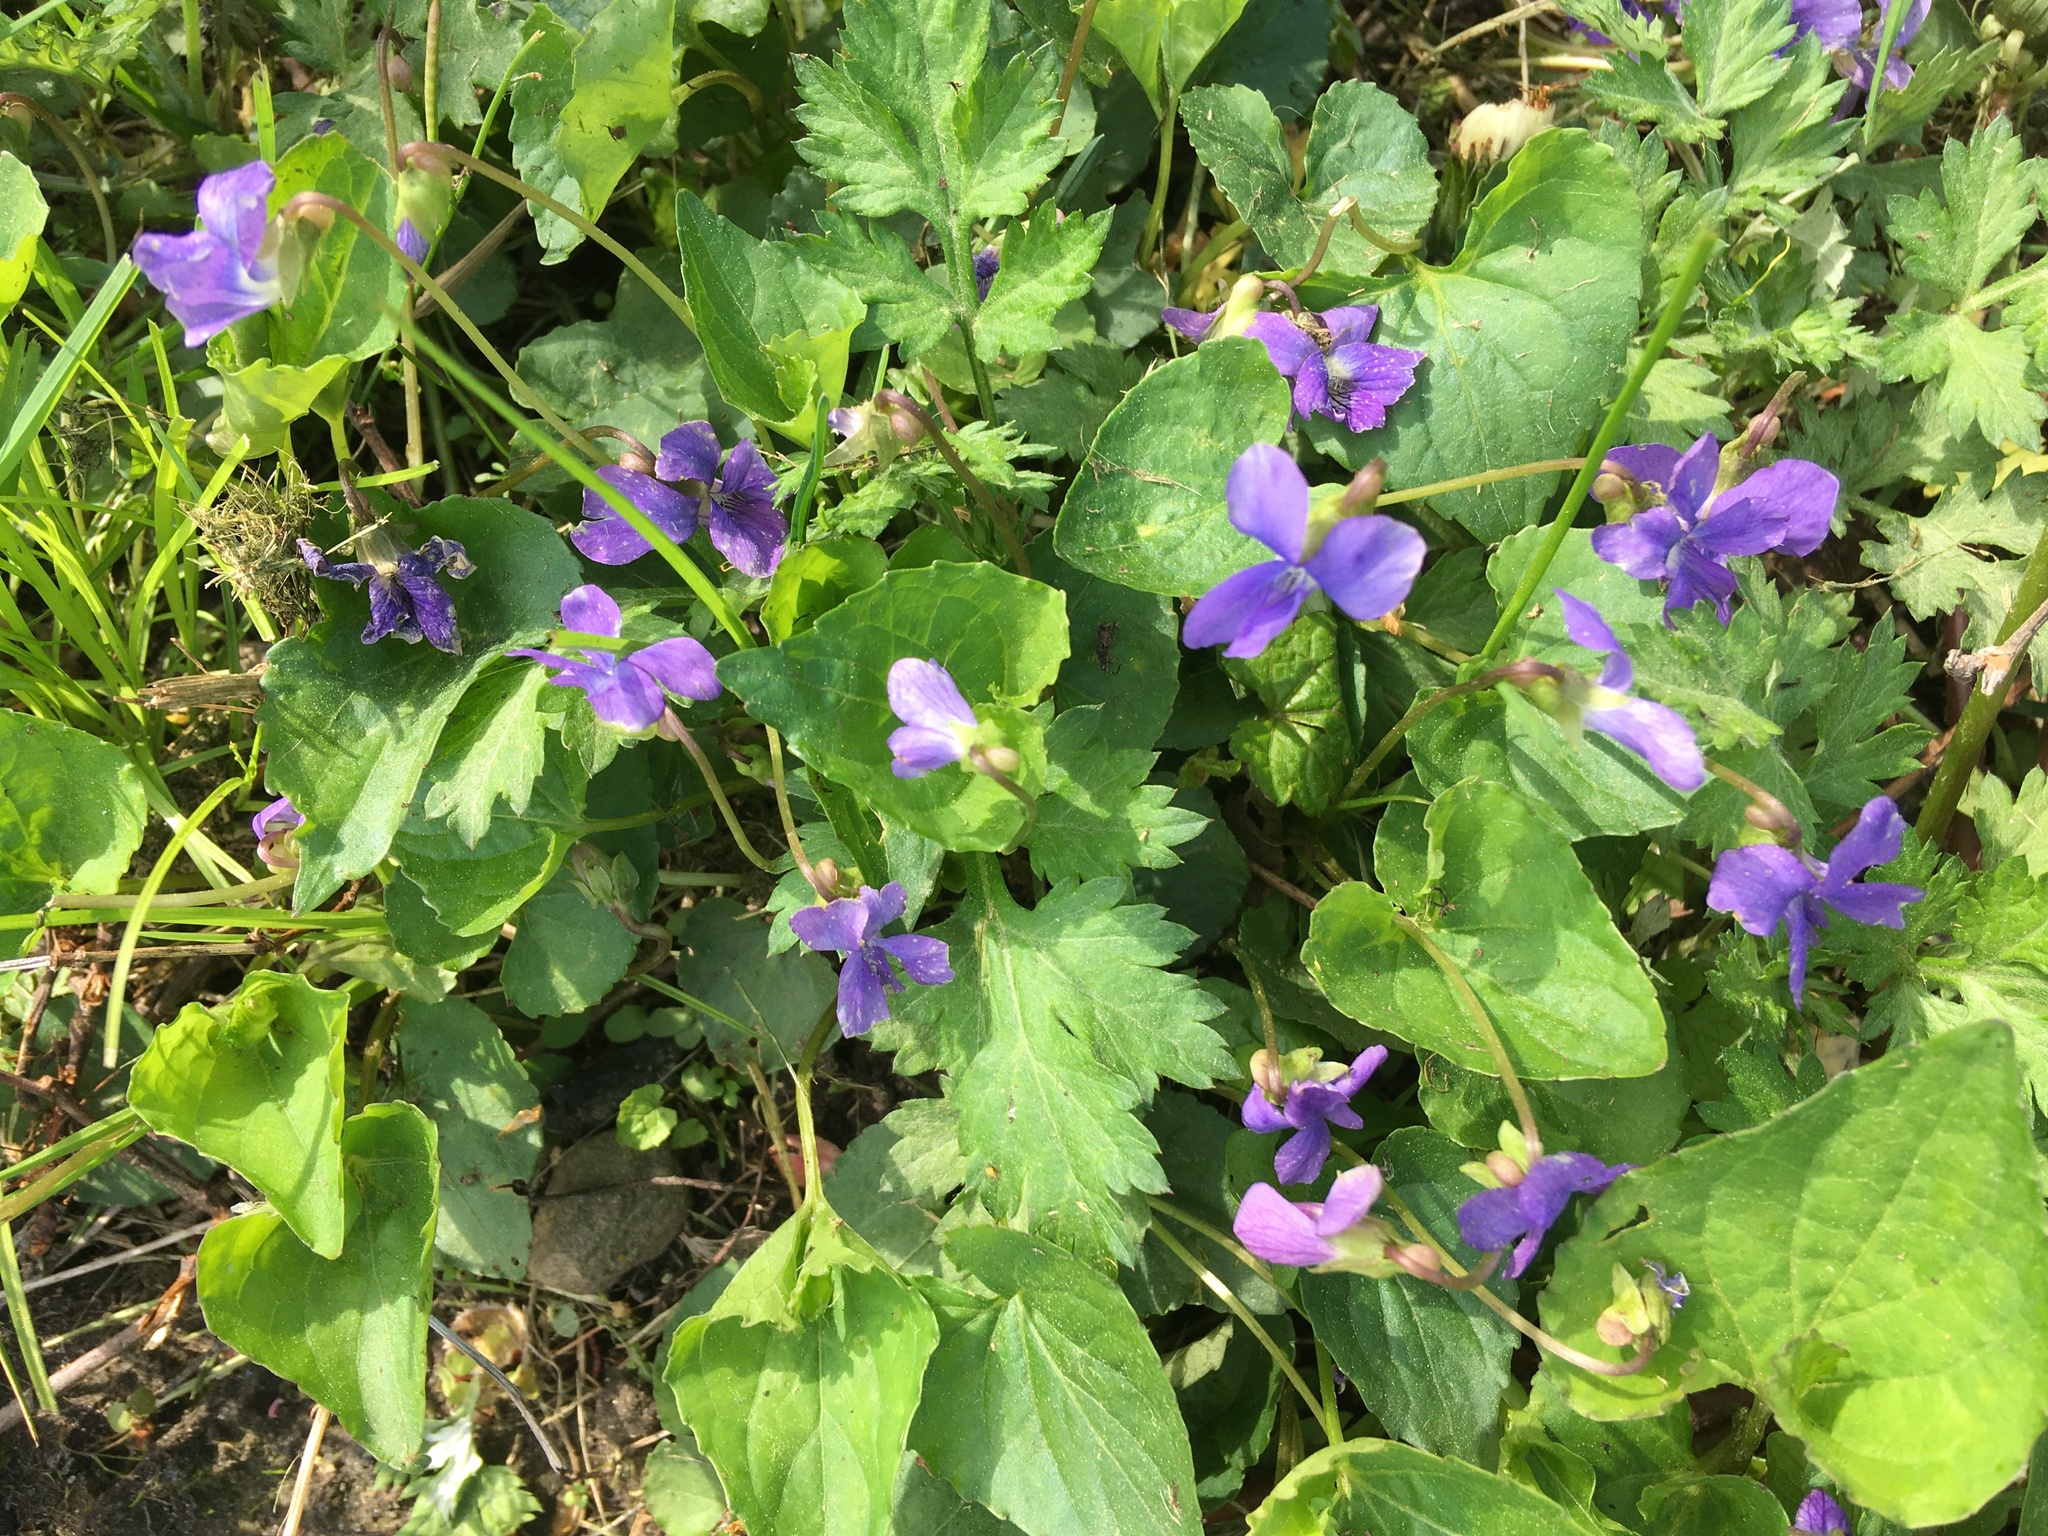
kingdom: Plantae
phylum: Tracheophyta
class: Magnoliopsida
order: Malpighiales
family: Violaceae
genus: Viola
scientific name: Viola sororia
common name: Dooryard violet
